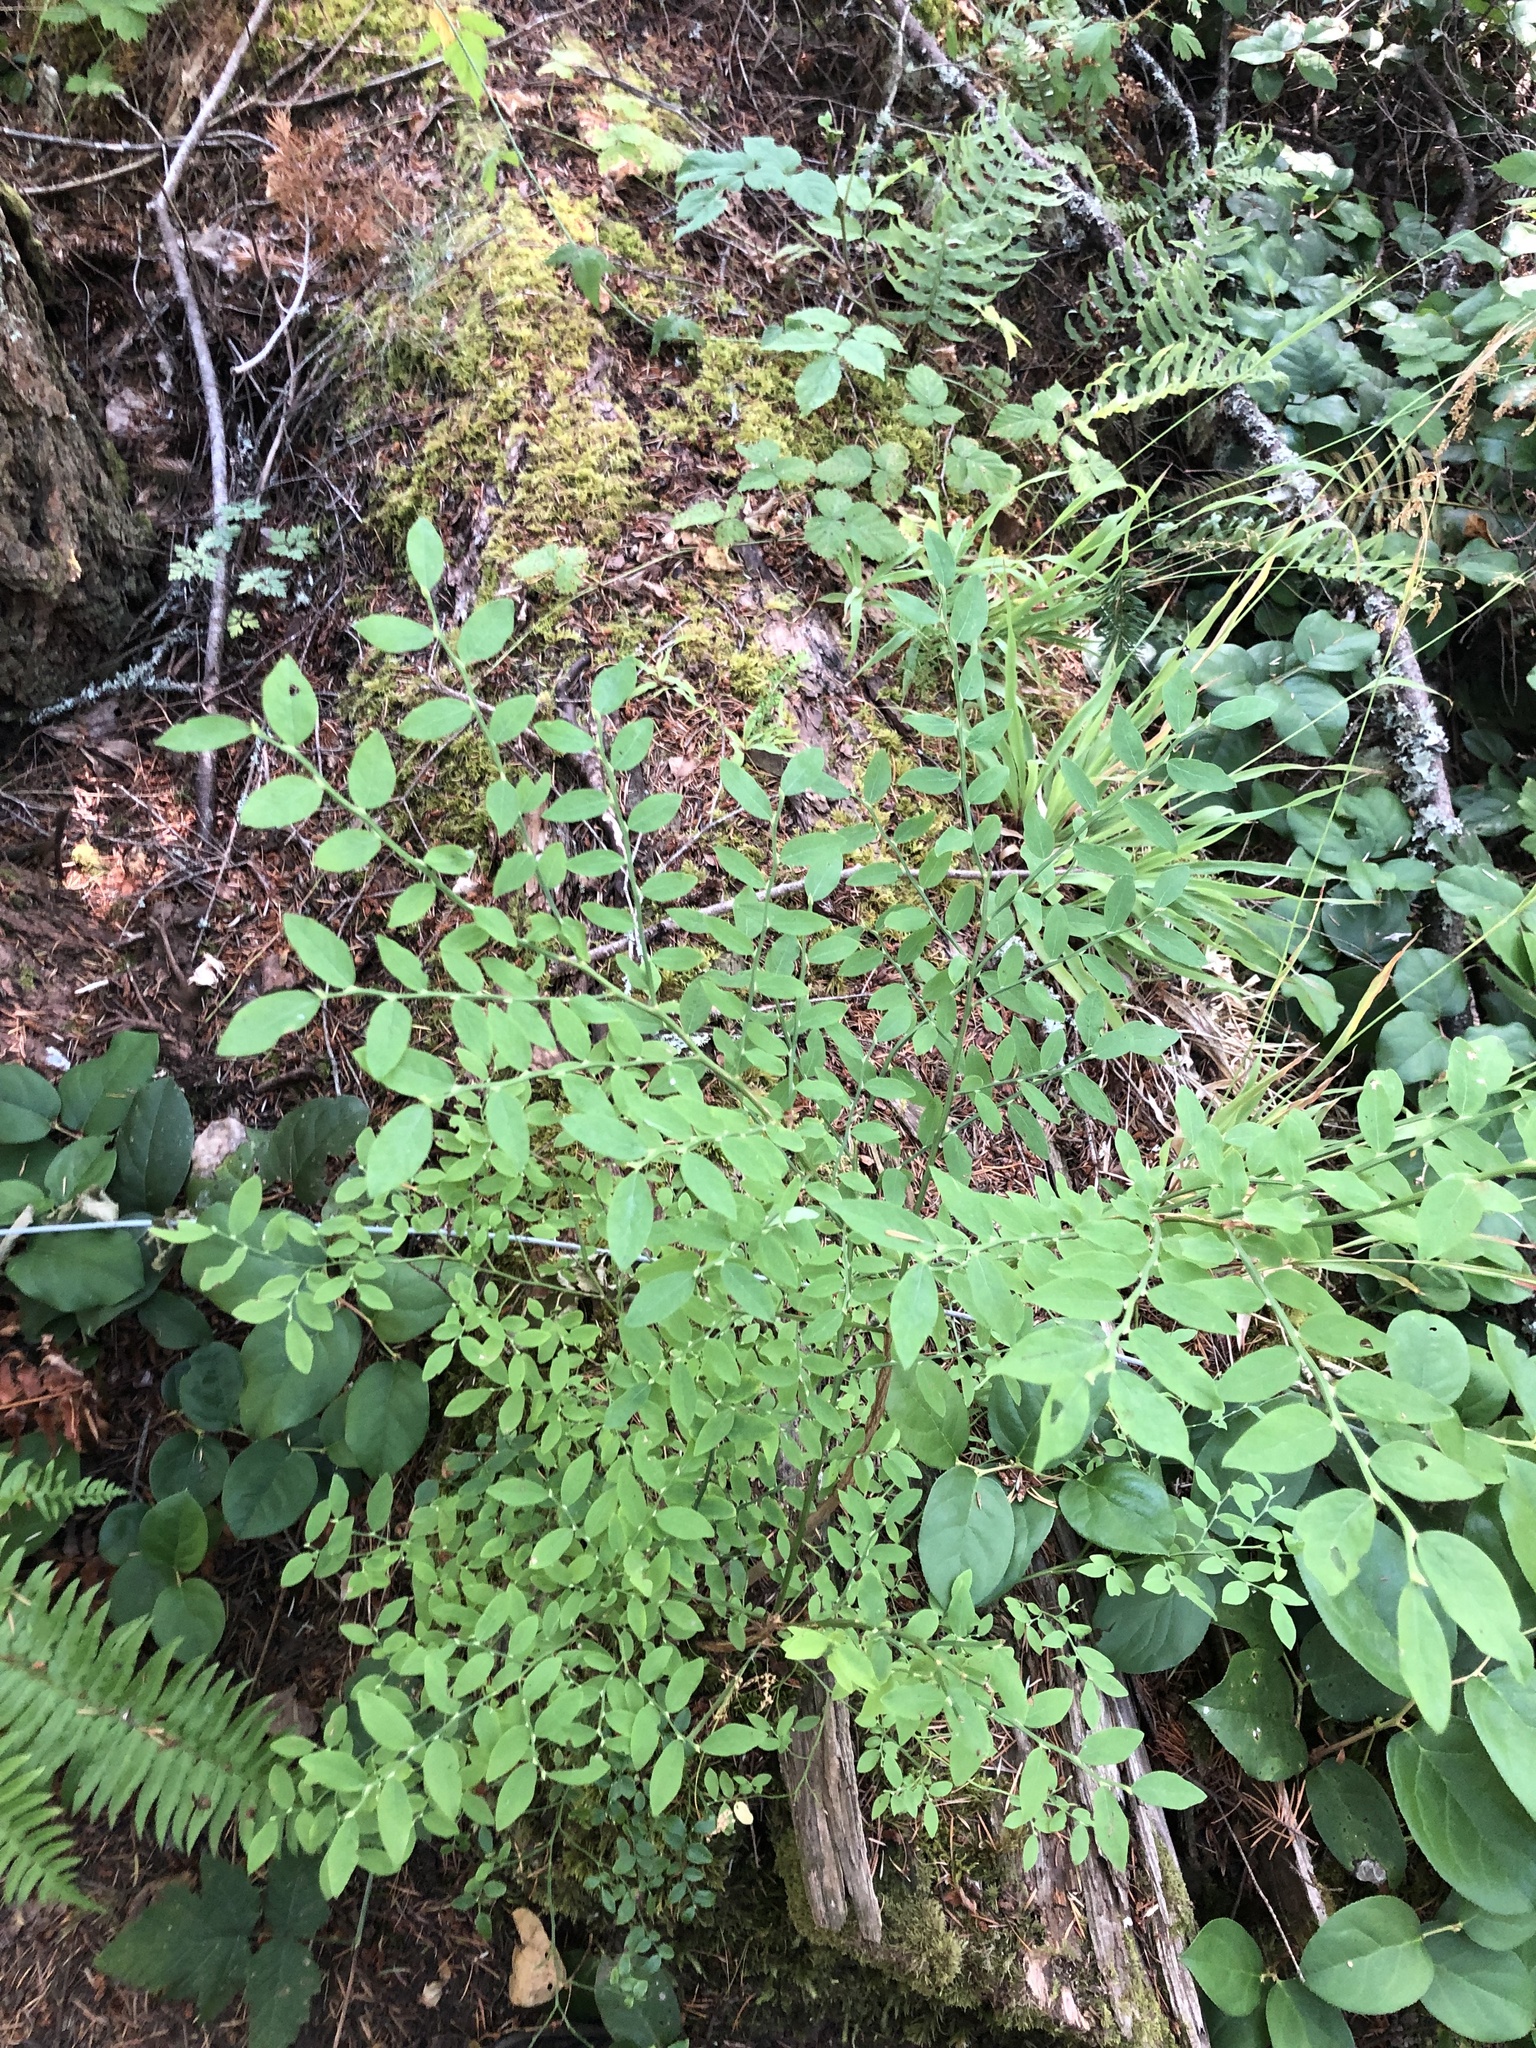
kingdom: Plantae
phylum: Tracheophyta
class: Magnoliopsida
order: Ericales
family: Ericaceae
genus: Vaccinium
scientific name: Vaccinium parvifolium
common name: Red-huckleberry
